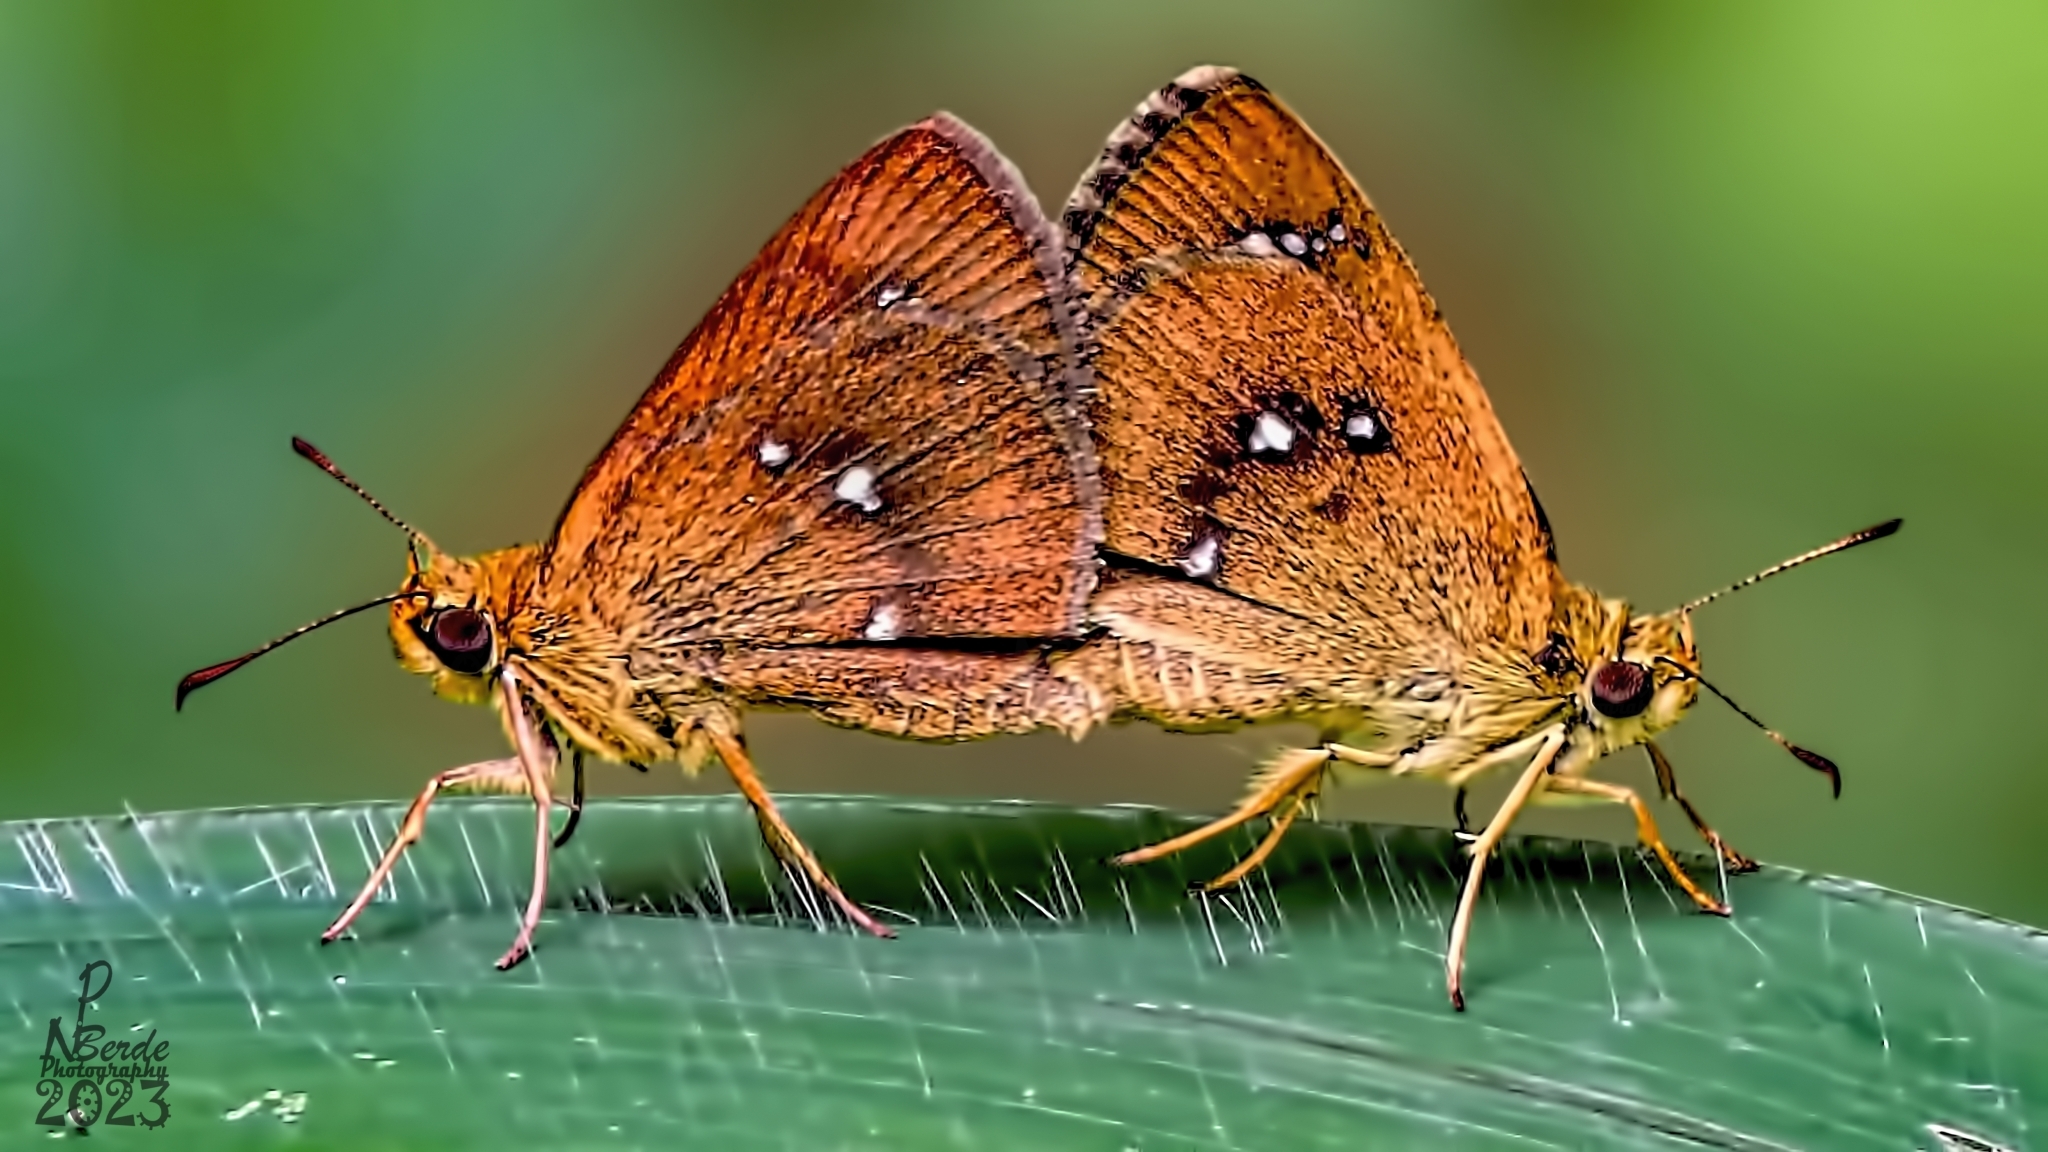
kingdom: Animalia
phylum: Arthropoda
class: Insecta
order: Lepidoptera
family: Hesperiidae
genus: Iambrix
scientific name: Iambrix salsala
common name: Chestnut bob
